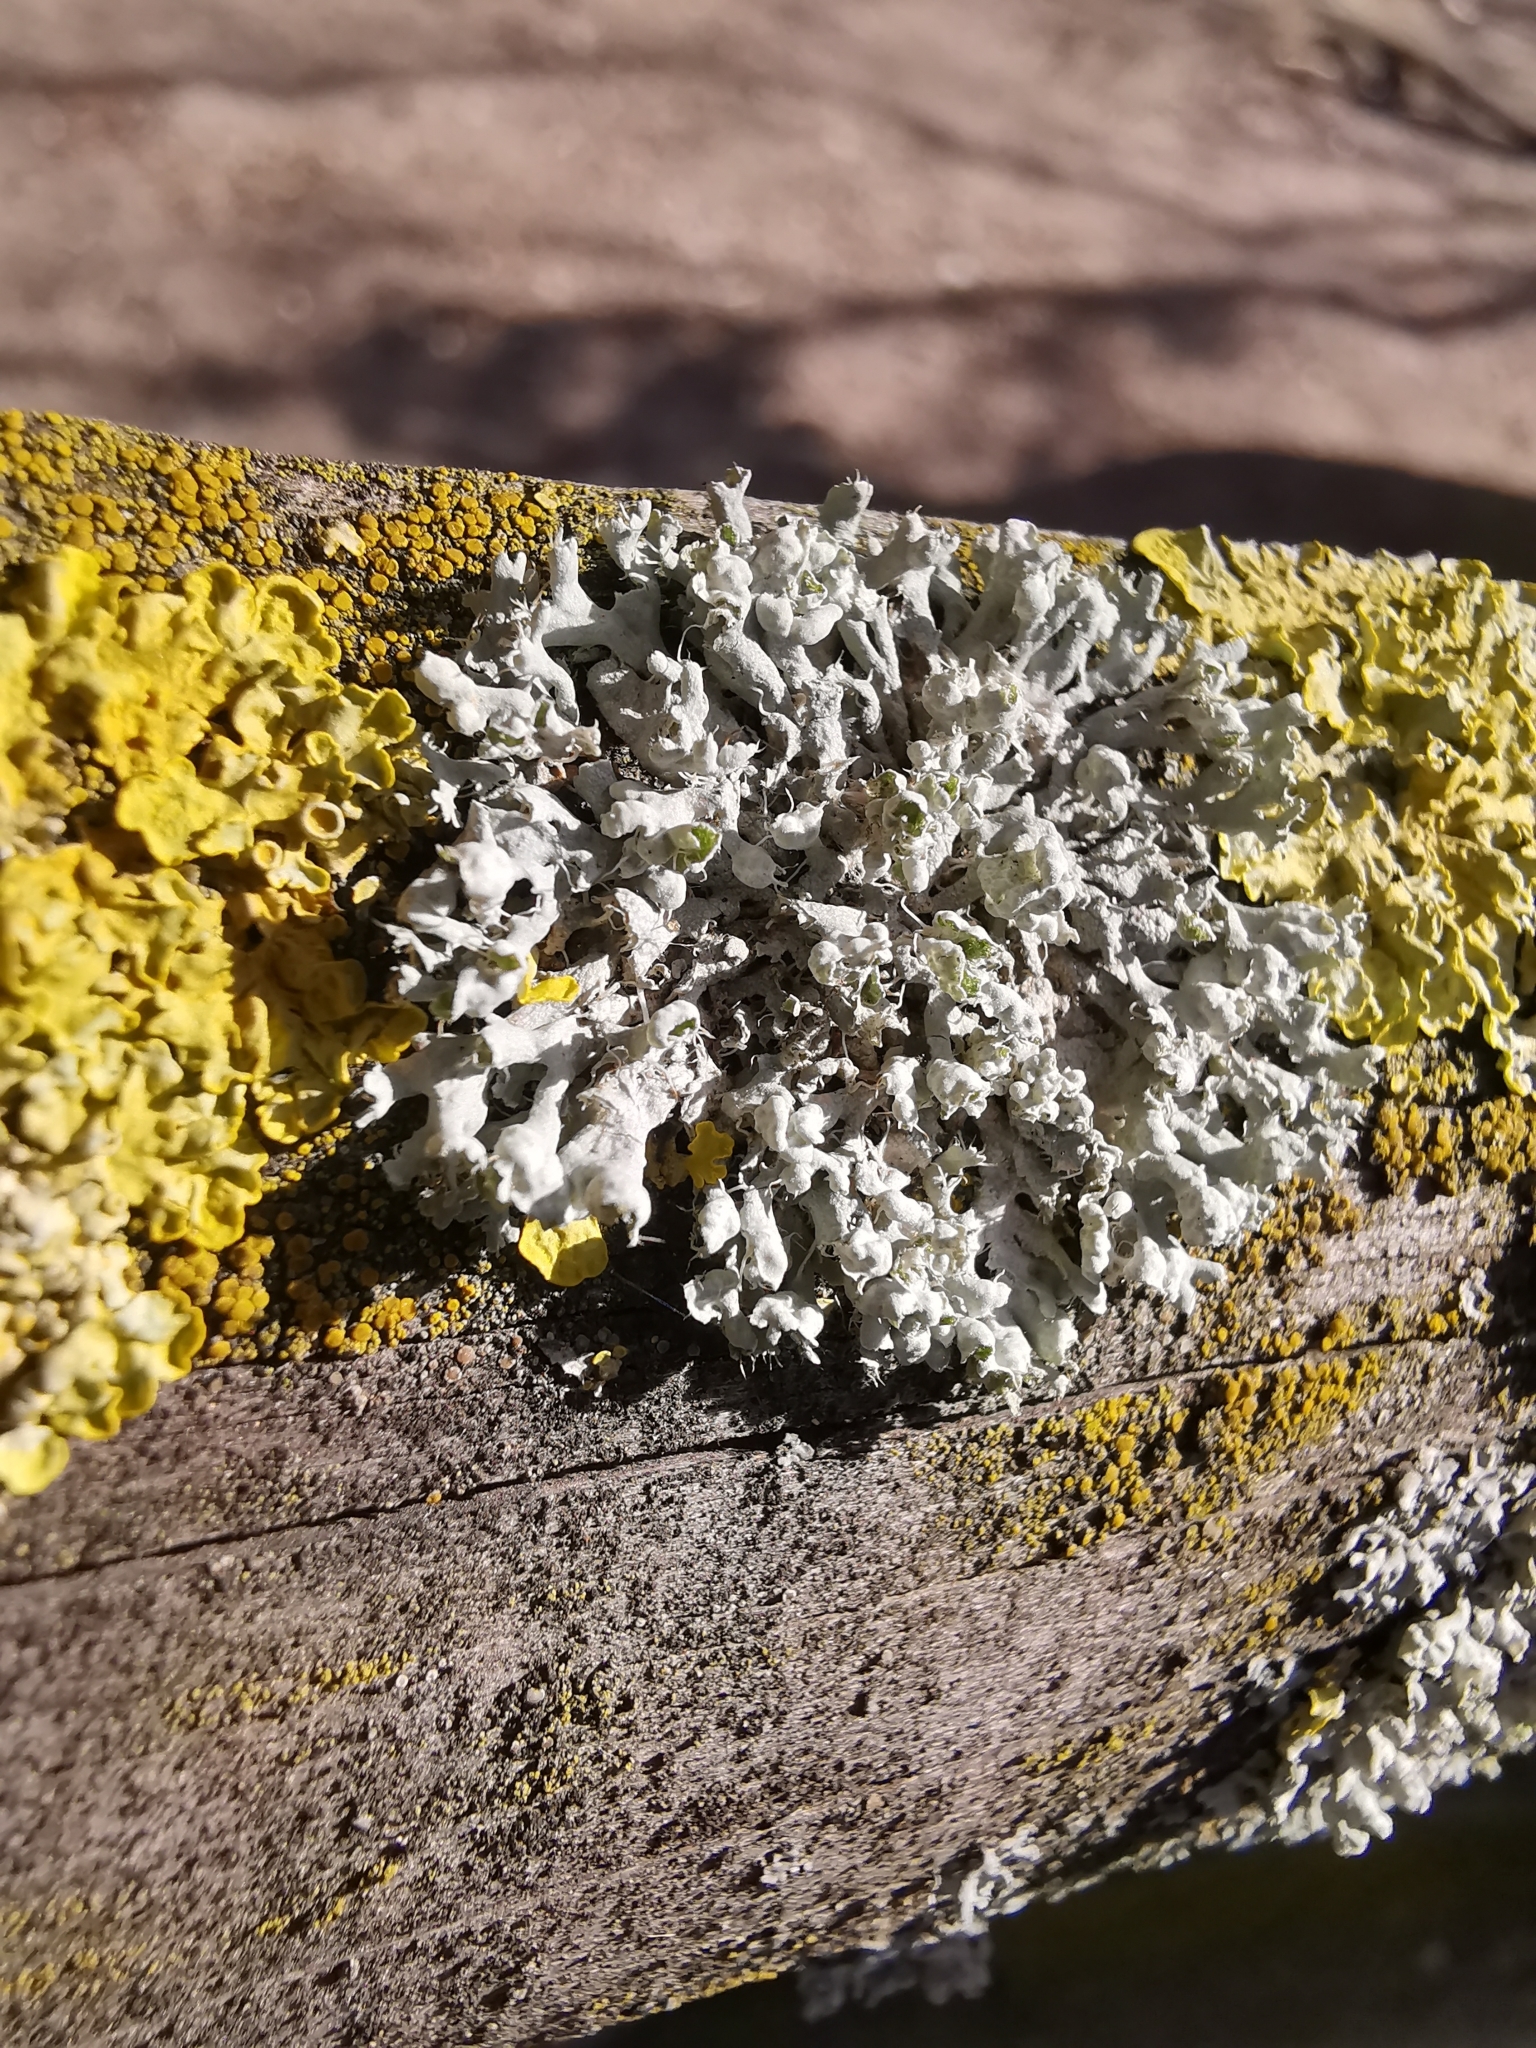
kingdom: Fungi
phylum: Ascomycota
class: Lecanoromycetes
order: Caliciales
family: Physciaceae
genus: Physcia
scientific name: Physcia adscendens
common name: Hooded rosette lichen
